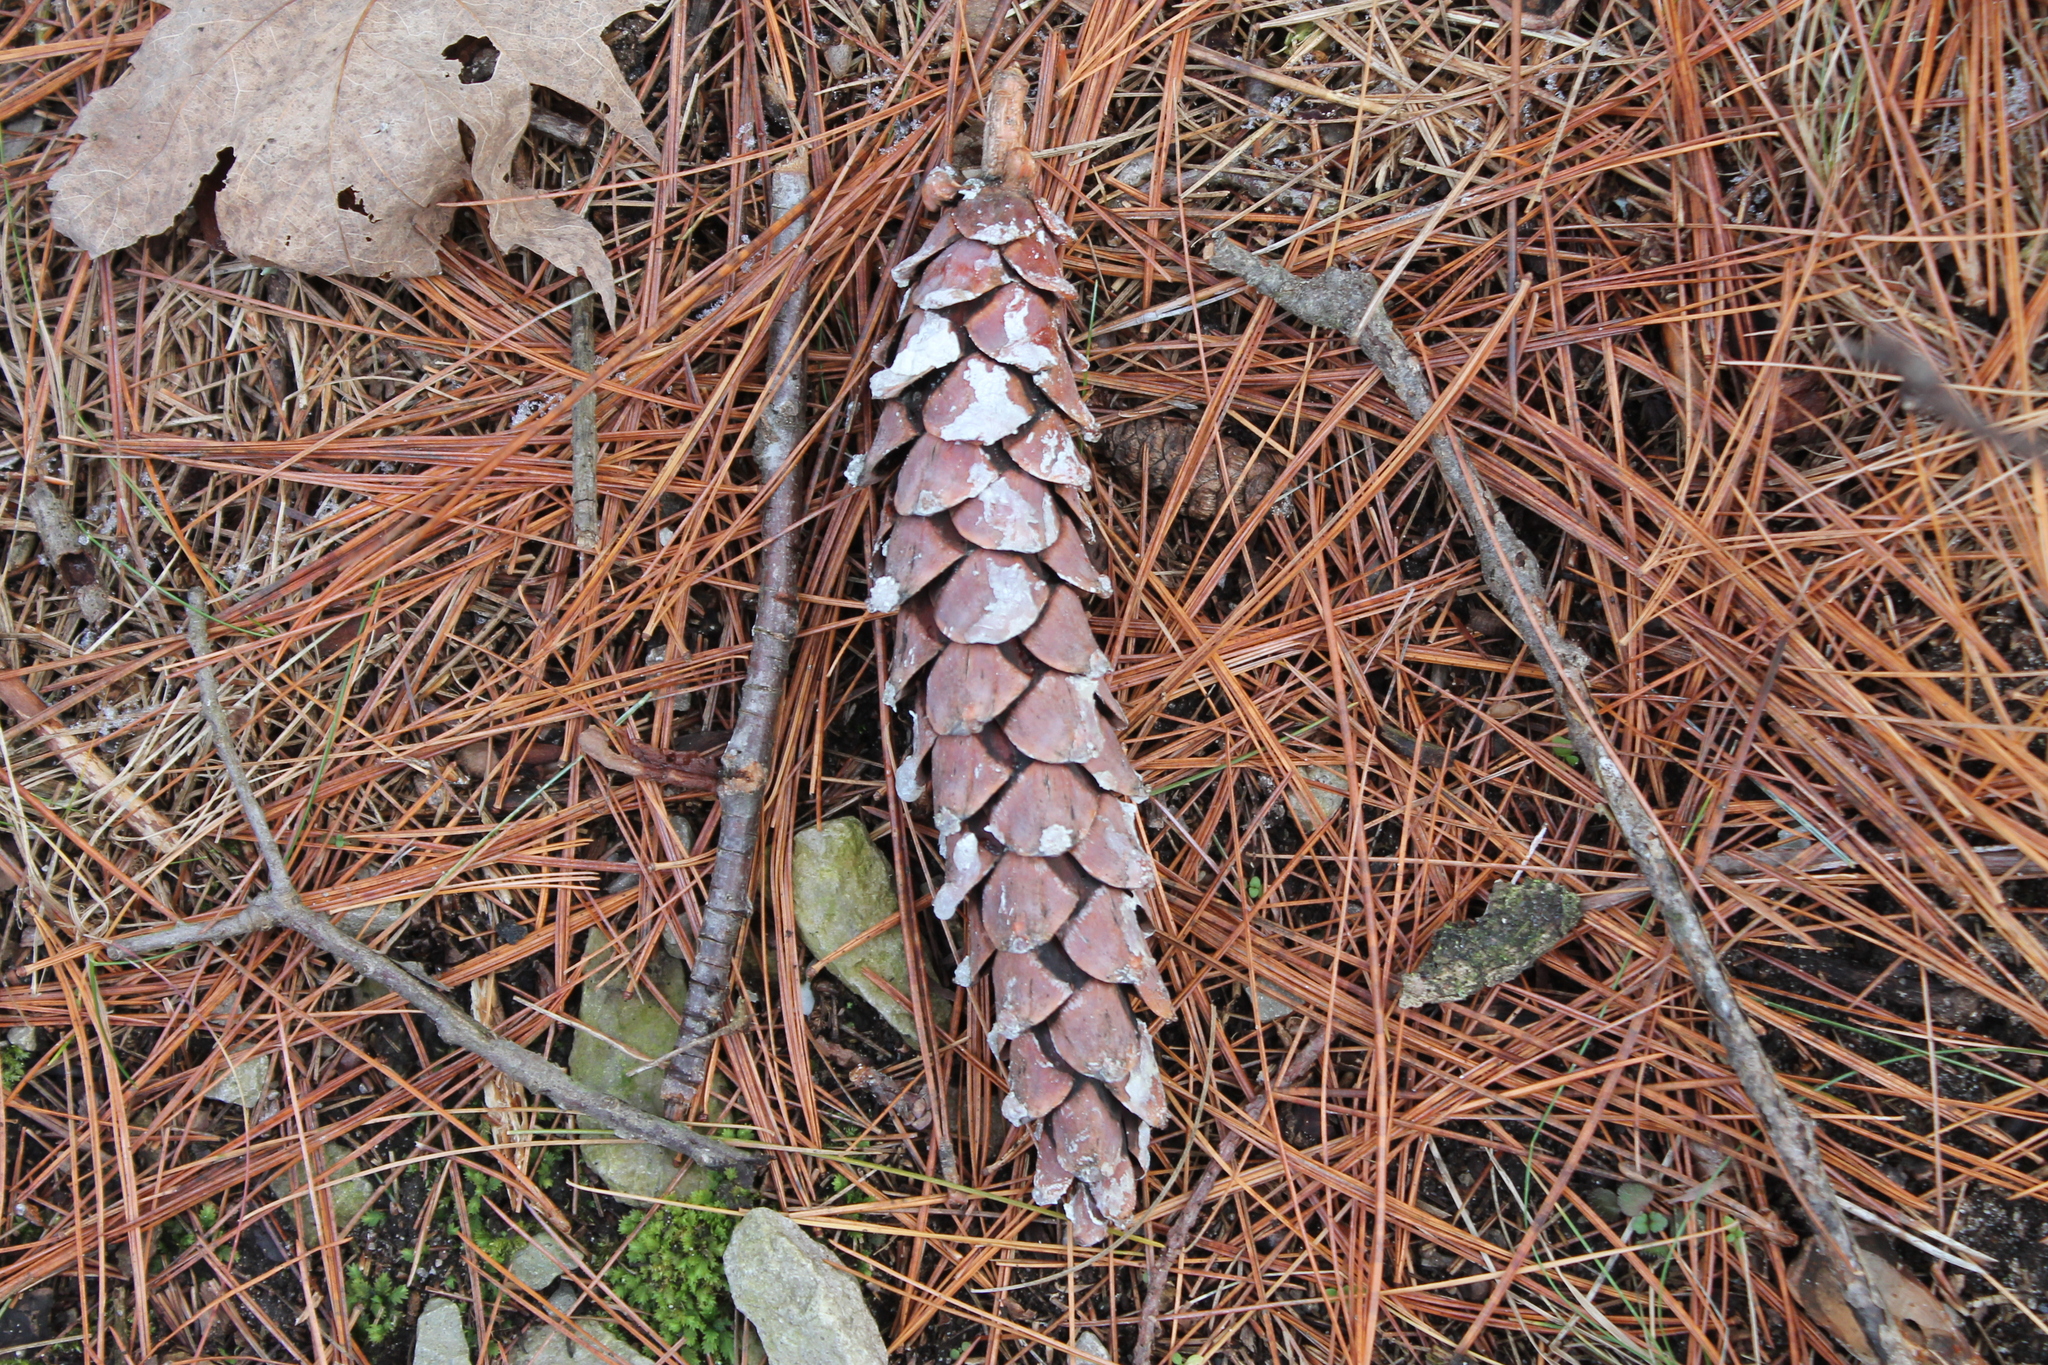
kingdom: Plantae
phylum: Tracheophyta
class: Pinopsida
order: Pinales
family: Pinaceae
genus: Pinus
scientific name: Pinus strobus
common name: Weymouth pine
